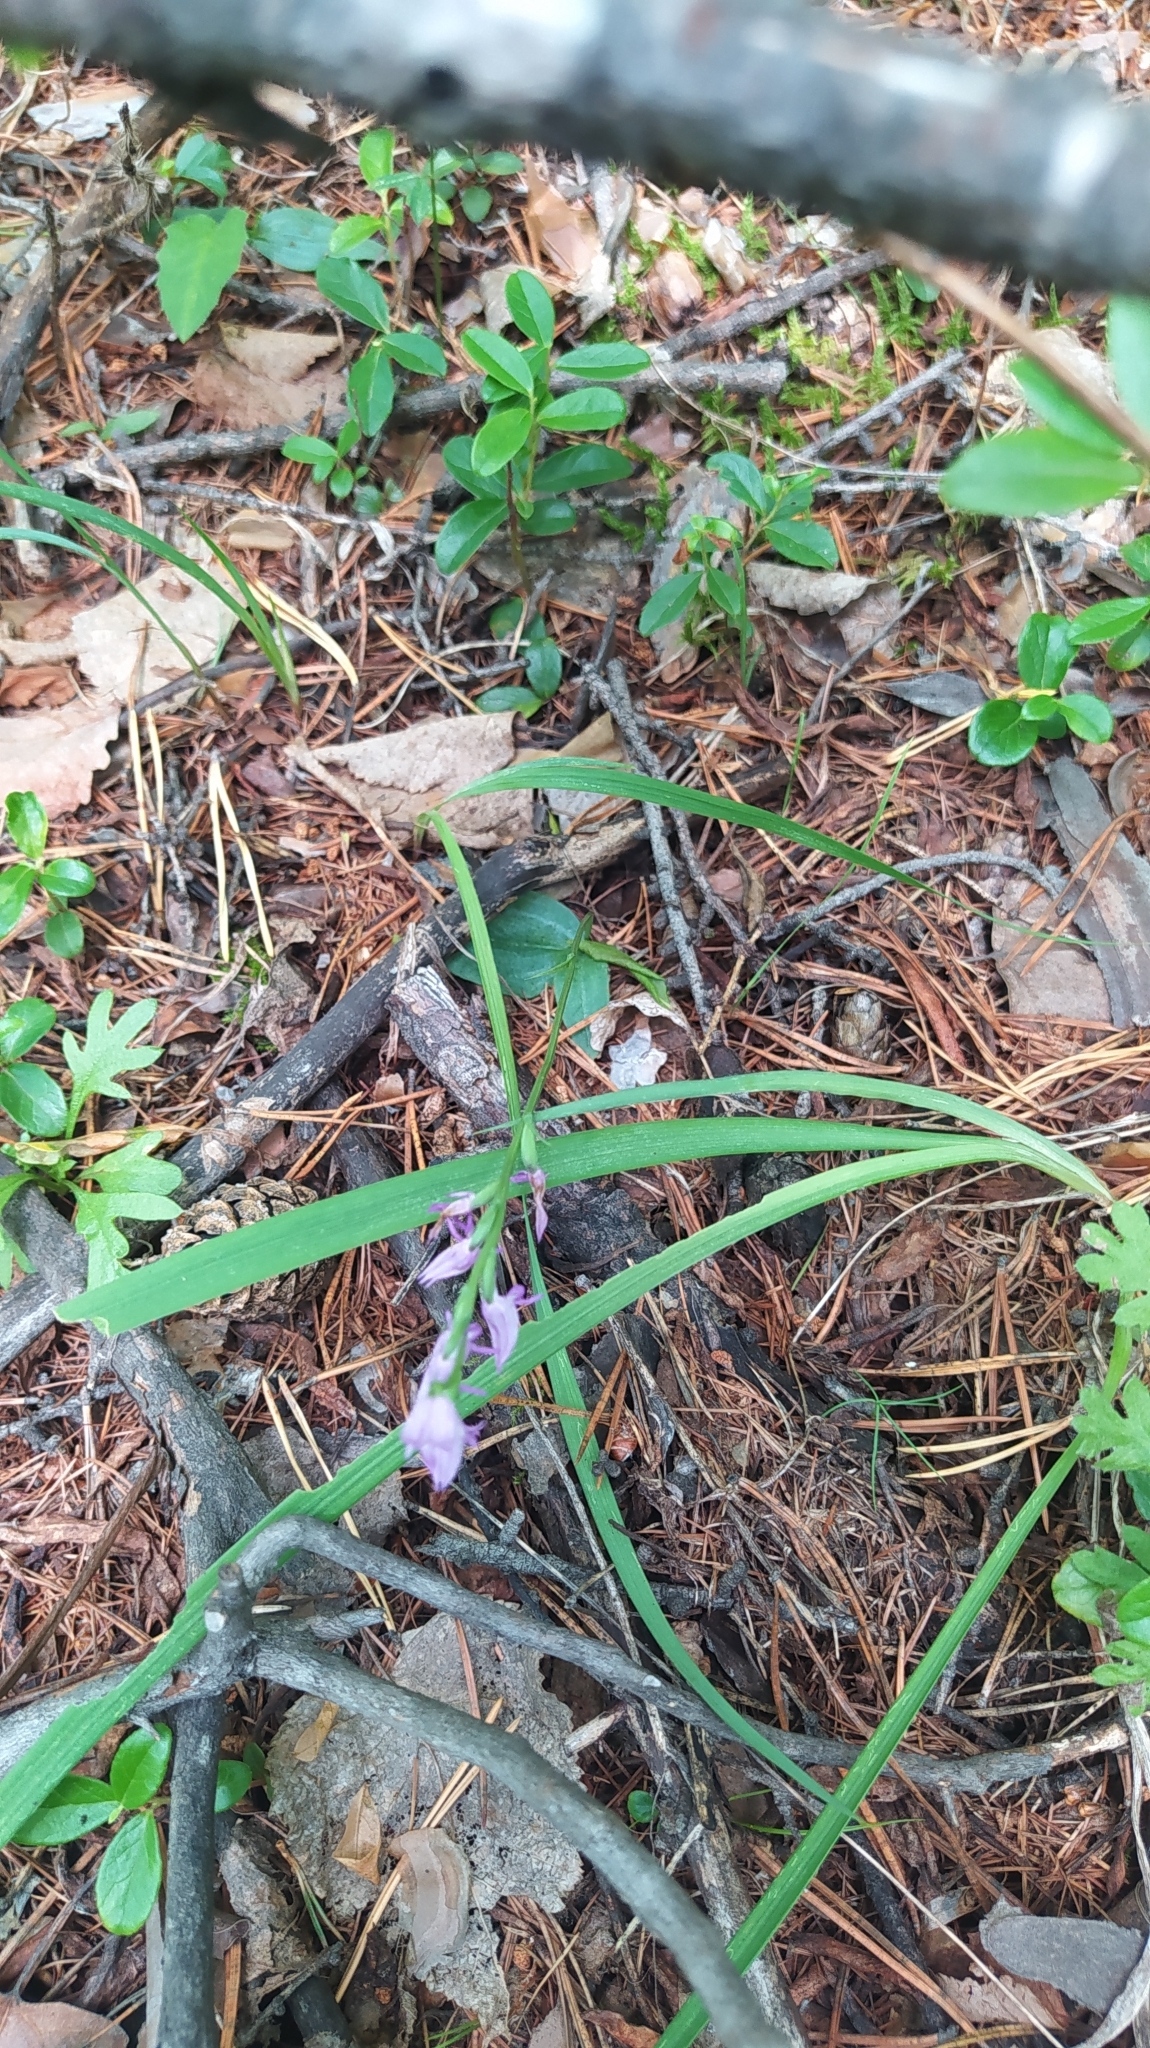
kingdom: Plantae
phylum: Tracheophyta
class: Liliopsida
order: Asparagales
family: Orchidaceae
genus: Hemipilia
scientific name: Hemipilia cucullata
